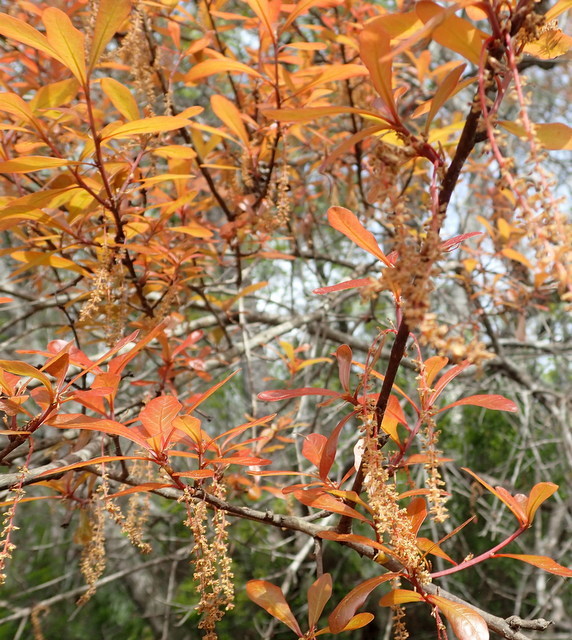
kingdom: Plantae
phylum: Tracheophyta
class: Magnoliopsida
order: Fagales
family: Fagaceae
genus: Quercus
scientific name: Quercus laurifolia
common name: Swamp laurel oak
